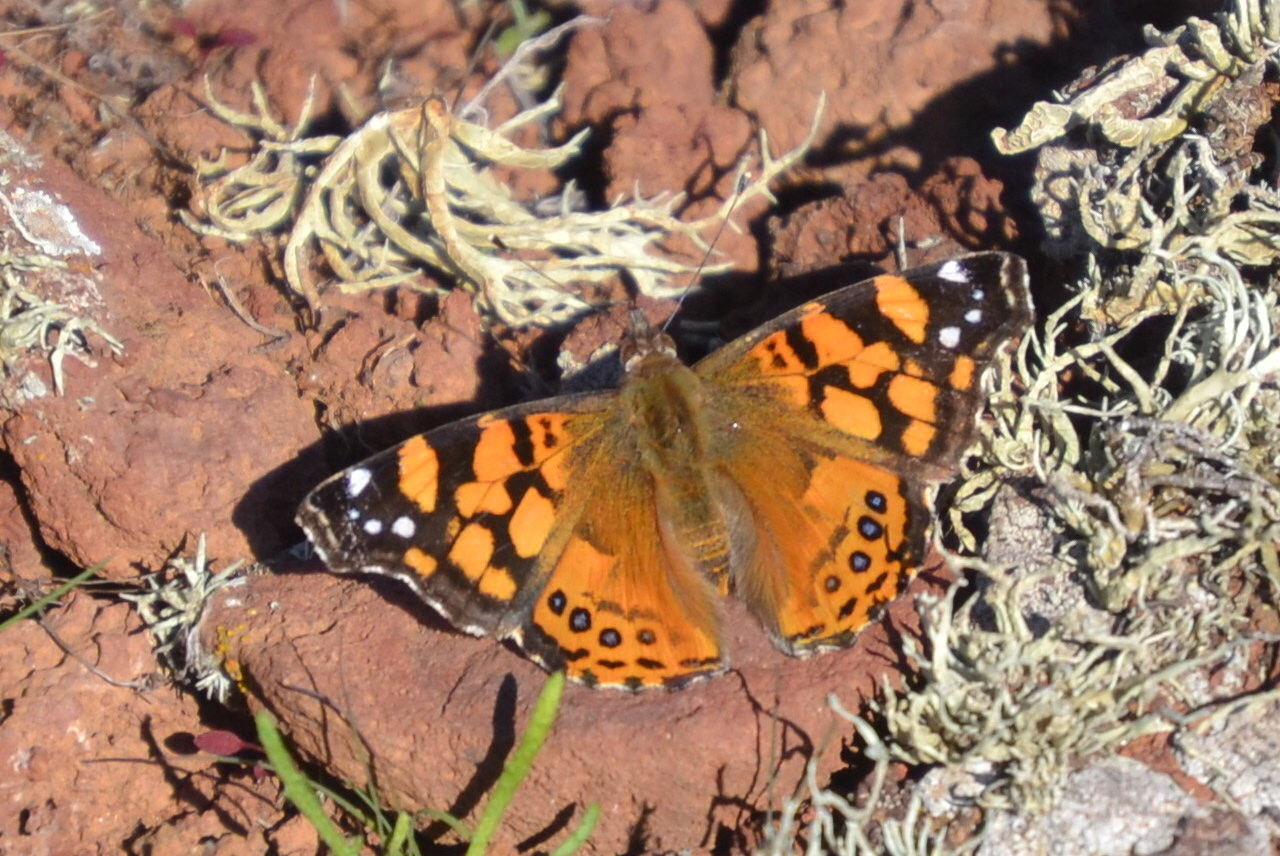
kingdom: Animalia
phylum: Arthropoda
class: Insecta
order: Lepidoptera
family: Nymphalidae
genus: Vanessa
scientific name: Vanessa annabella
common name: West coast lady
